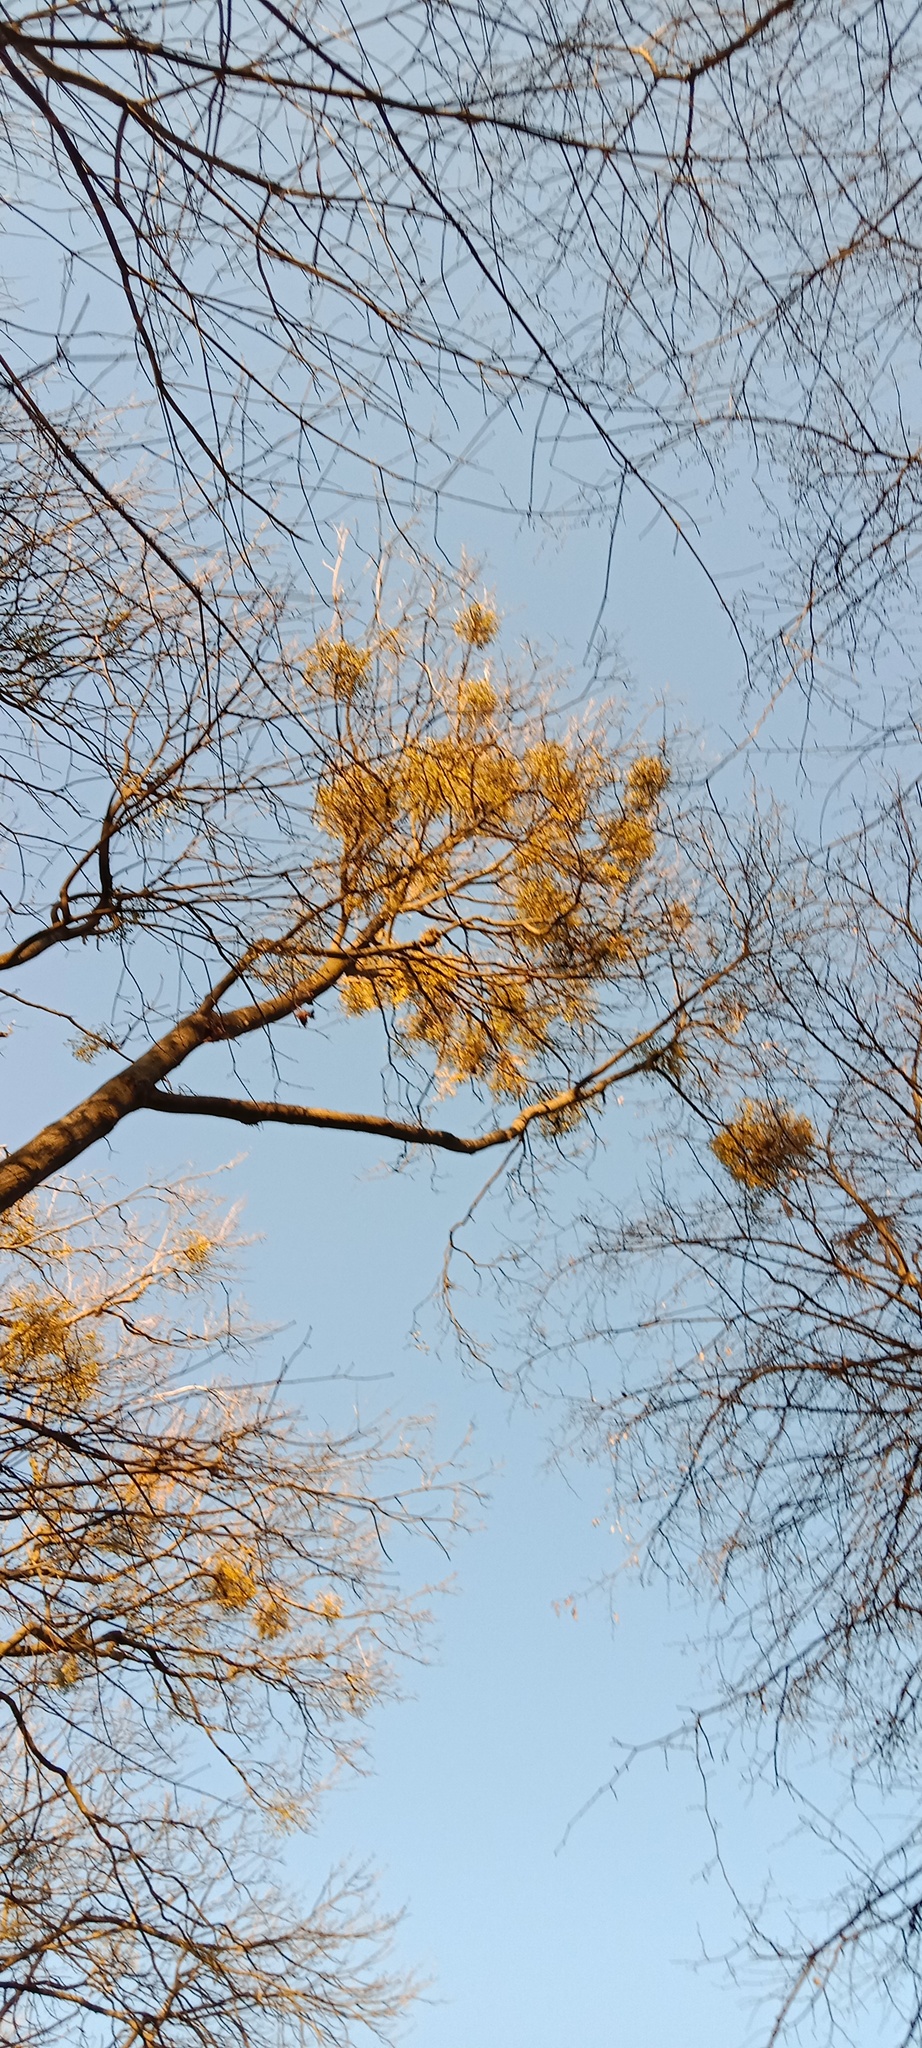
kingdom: Plantae
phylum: Tracheophyta
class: Magnoliopsida
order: Santalales
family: Viscaceae
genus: Viscum
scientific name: Viscum album
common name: Mistletoe
